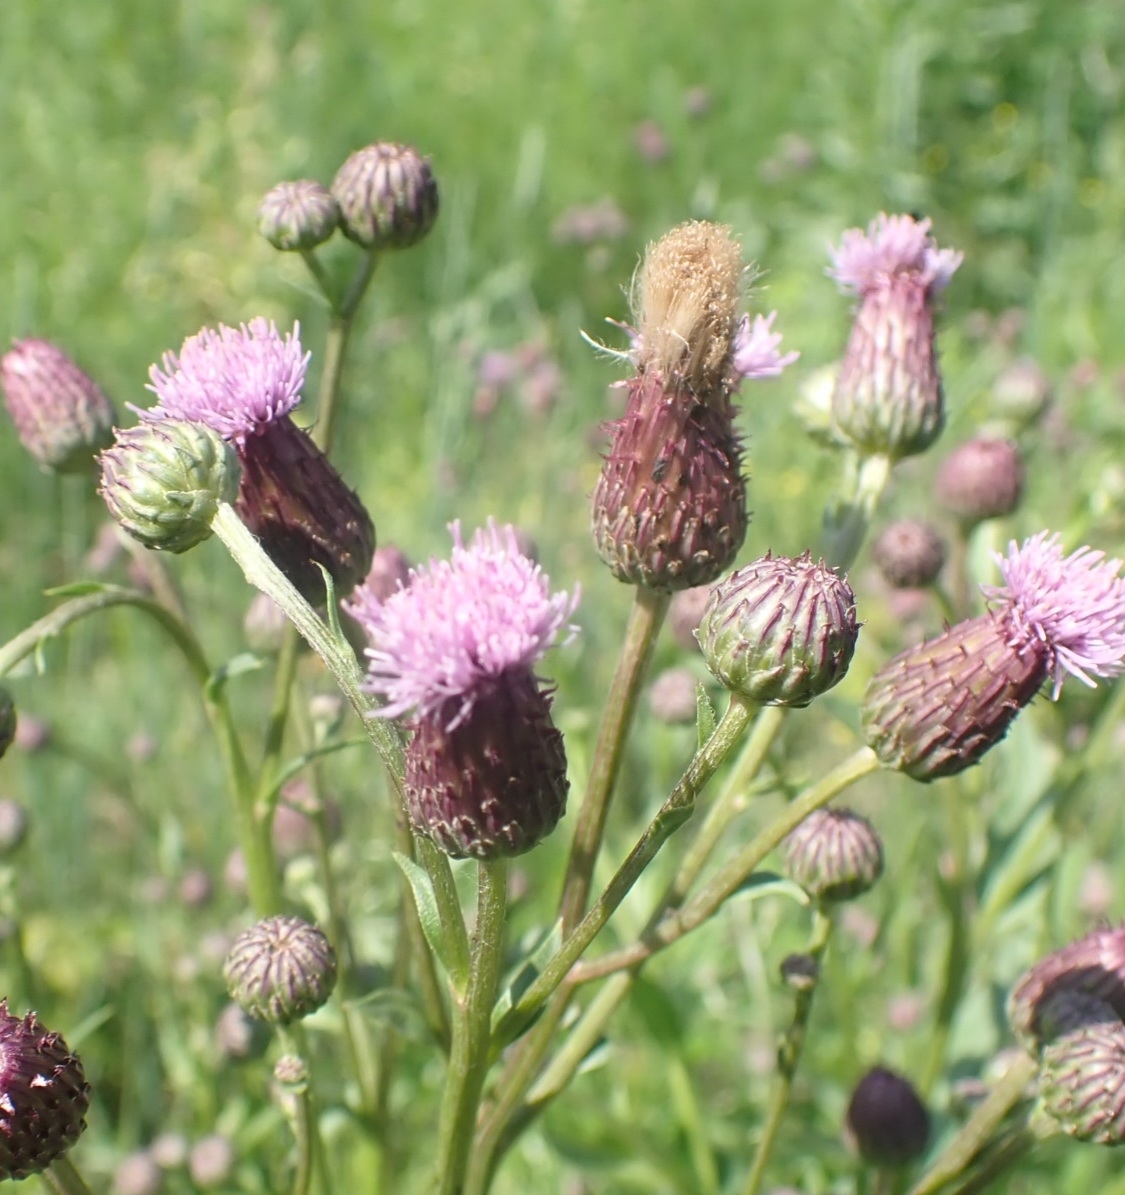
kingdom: Plantae
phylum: Tracheophyta
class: Magnoliopsida
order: Asterales
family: Asteraceae
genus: Cirsium
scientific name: Cirsium arvense
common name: Creeping thistle
